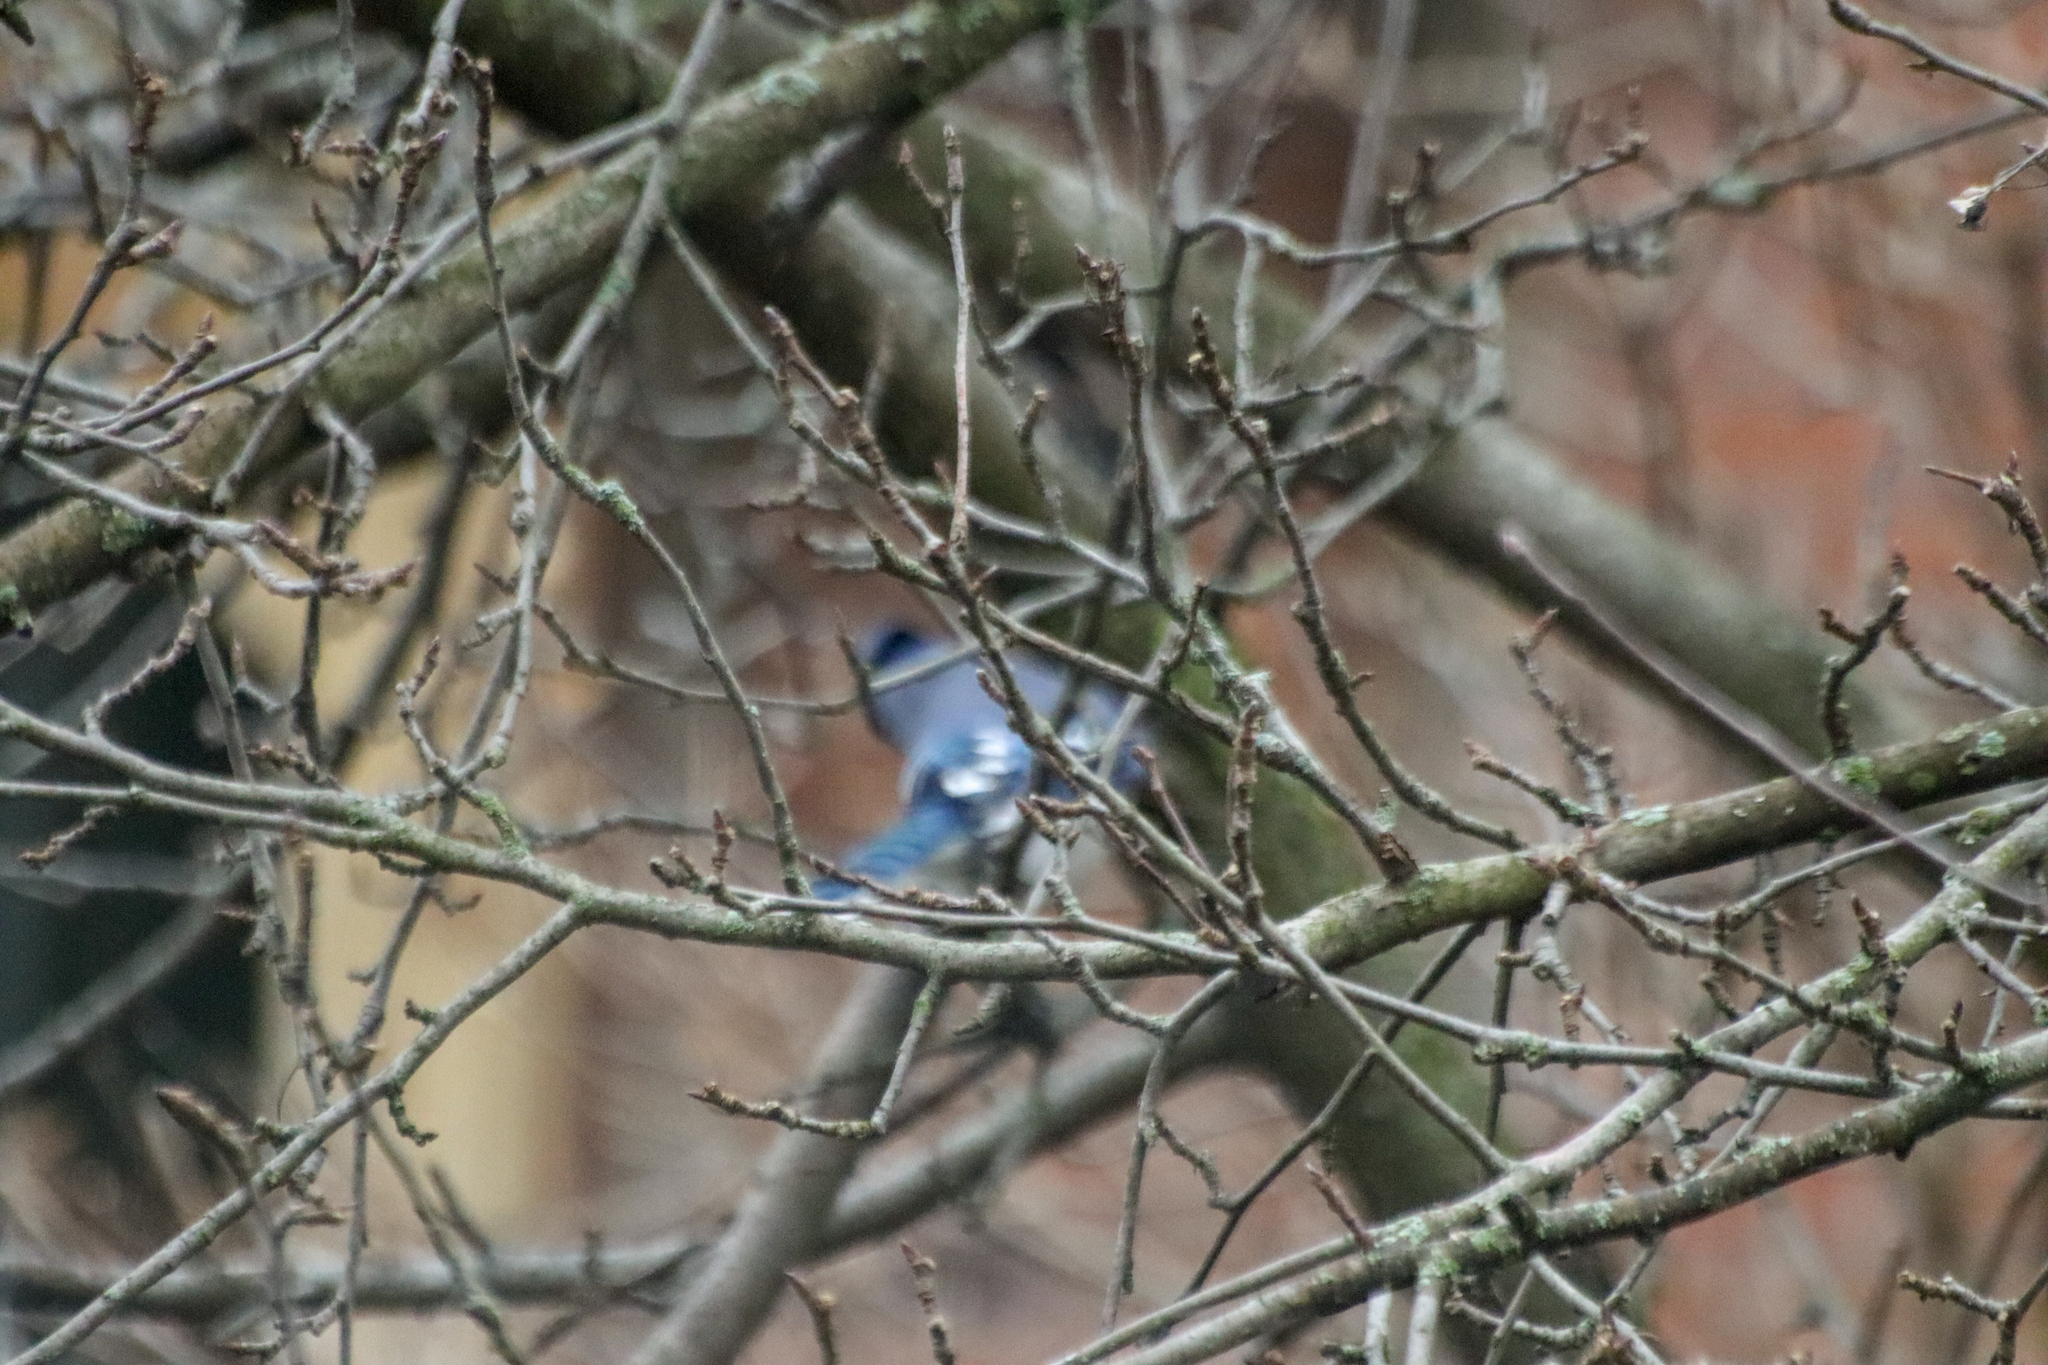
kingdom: Animalia
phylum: Chordata
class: Aves
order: Passeriformes
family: Corvidae
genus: Cyanocitta
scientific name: Cyanocitta cristata
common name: Blue jay
